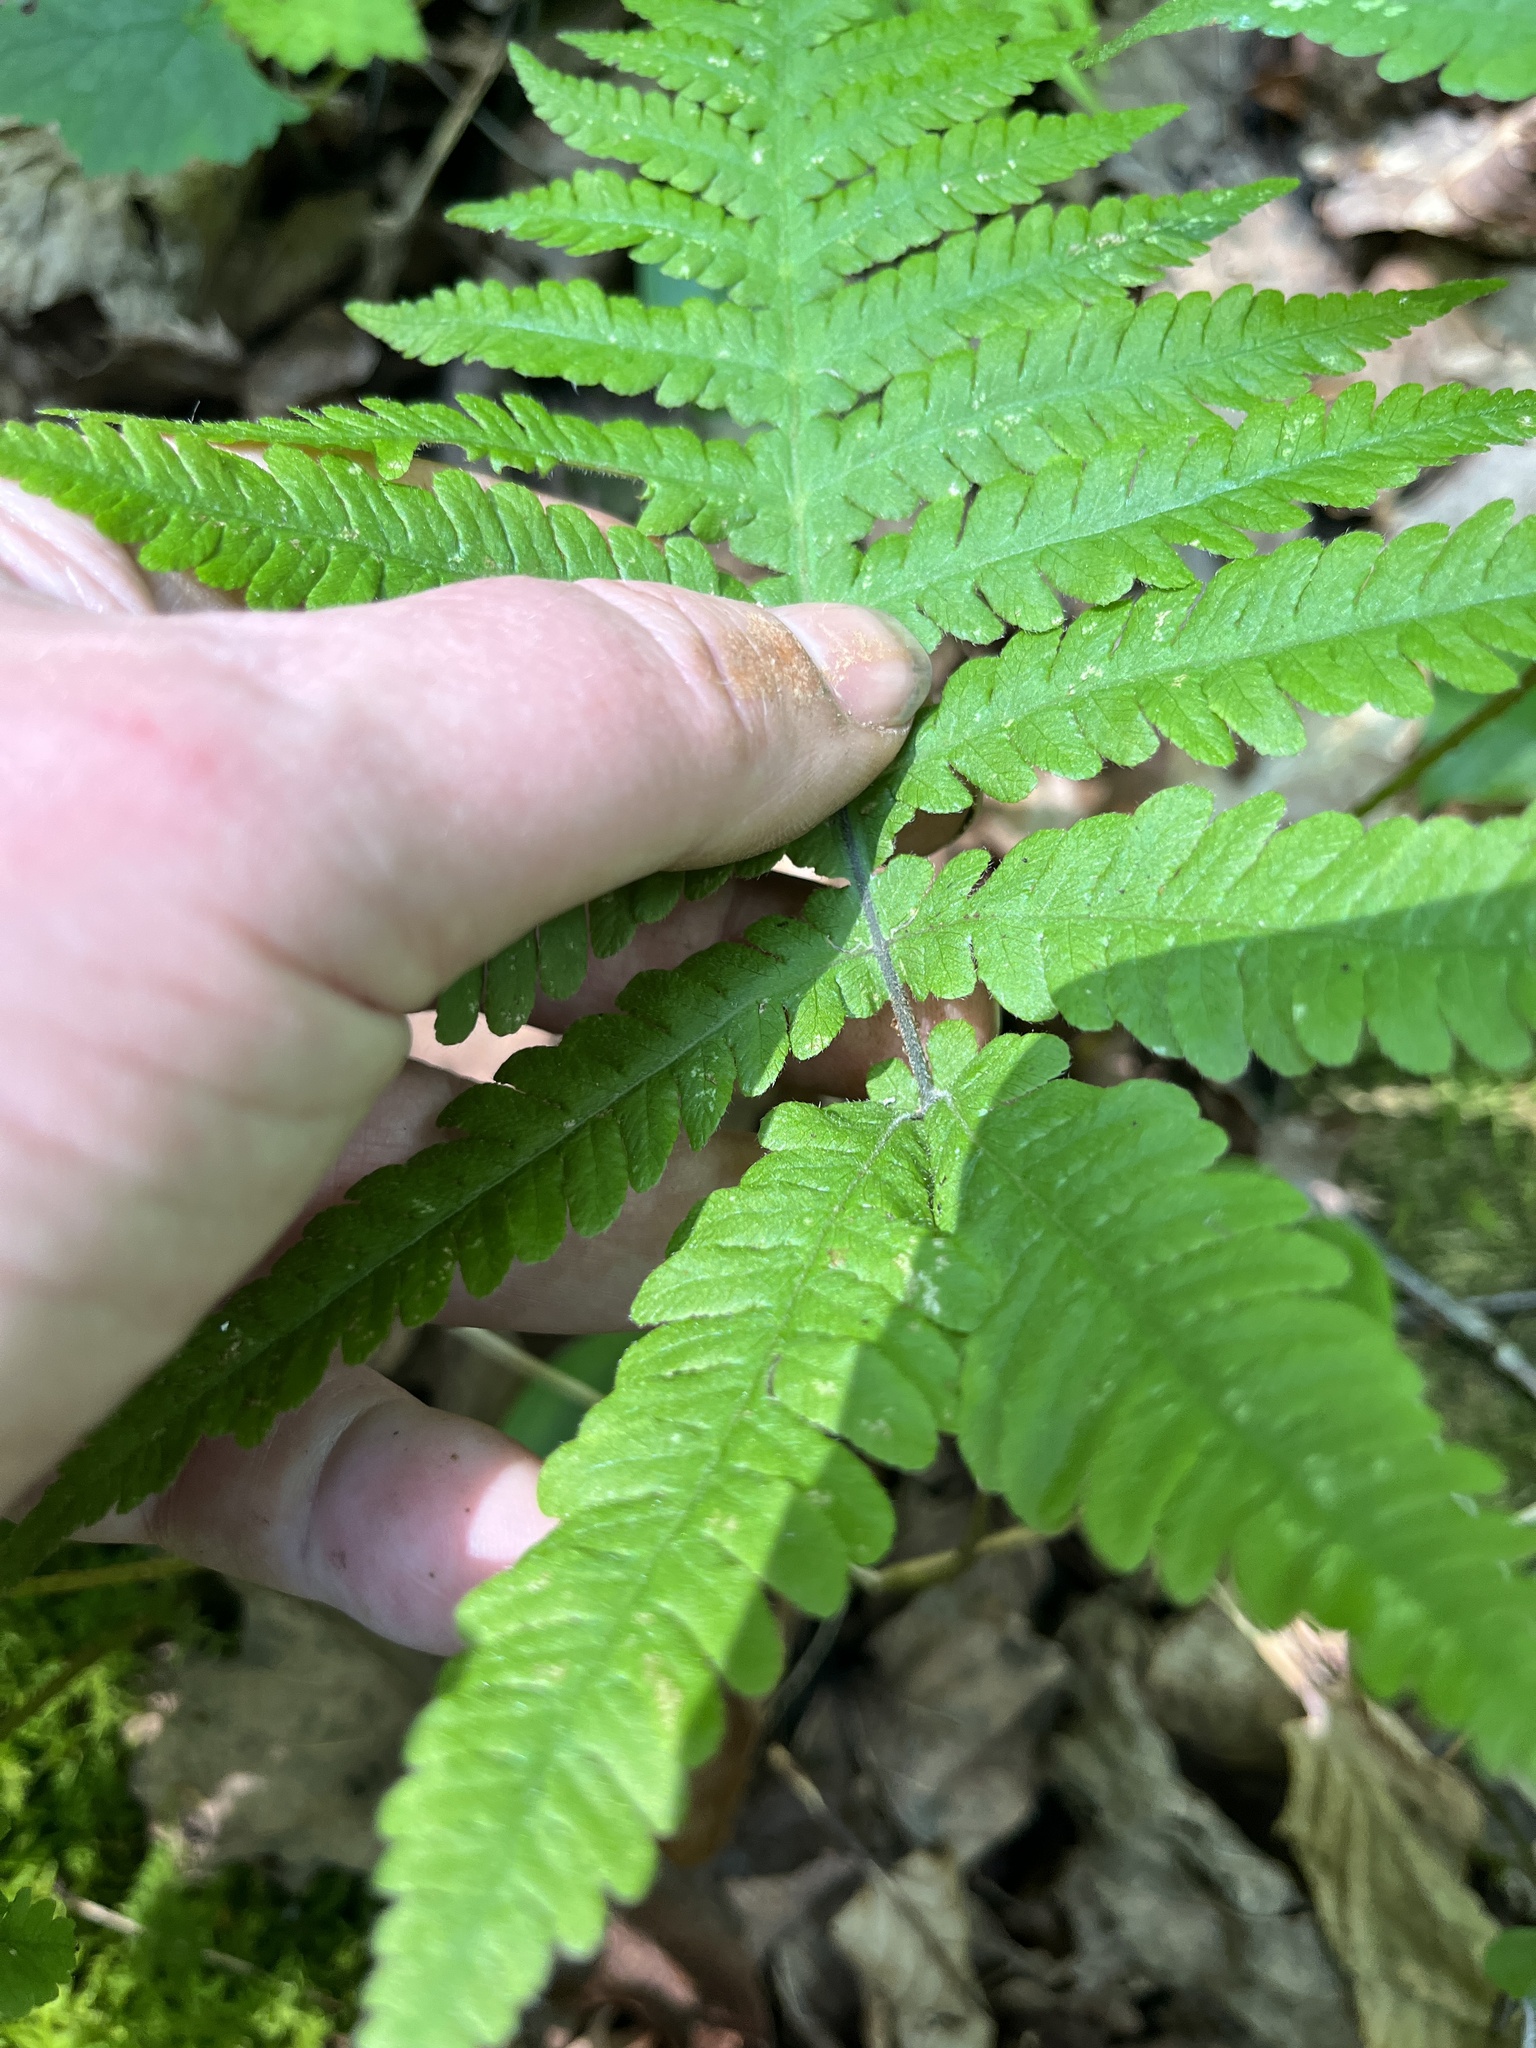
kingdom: Plantae
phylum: Tracheophyta
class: Polypodiopsida
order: Polypodiales
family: Thelypteridaceae
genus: Phegopteris
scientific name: Phegopteris connectilis
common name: Beech fern
